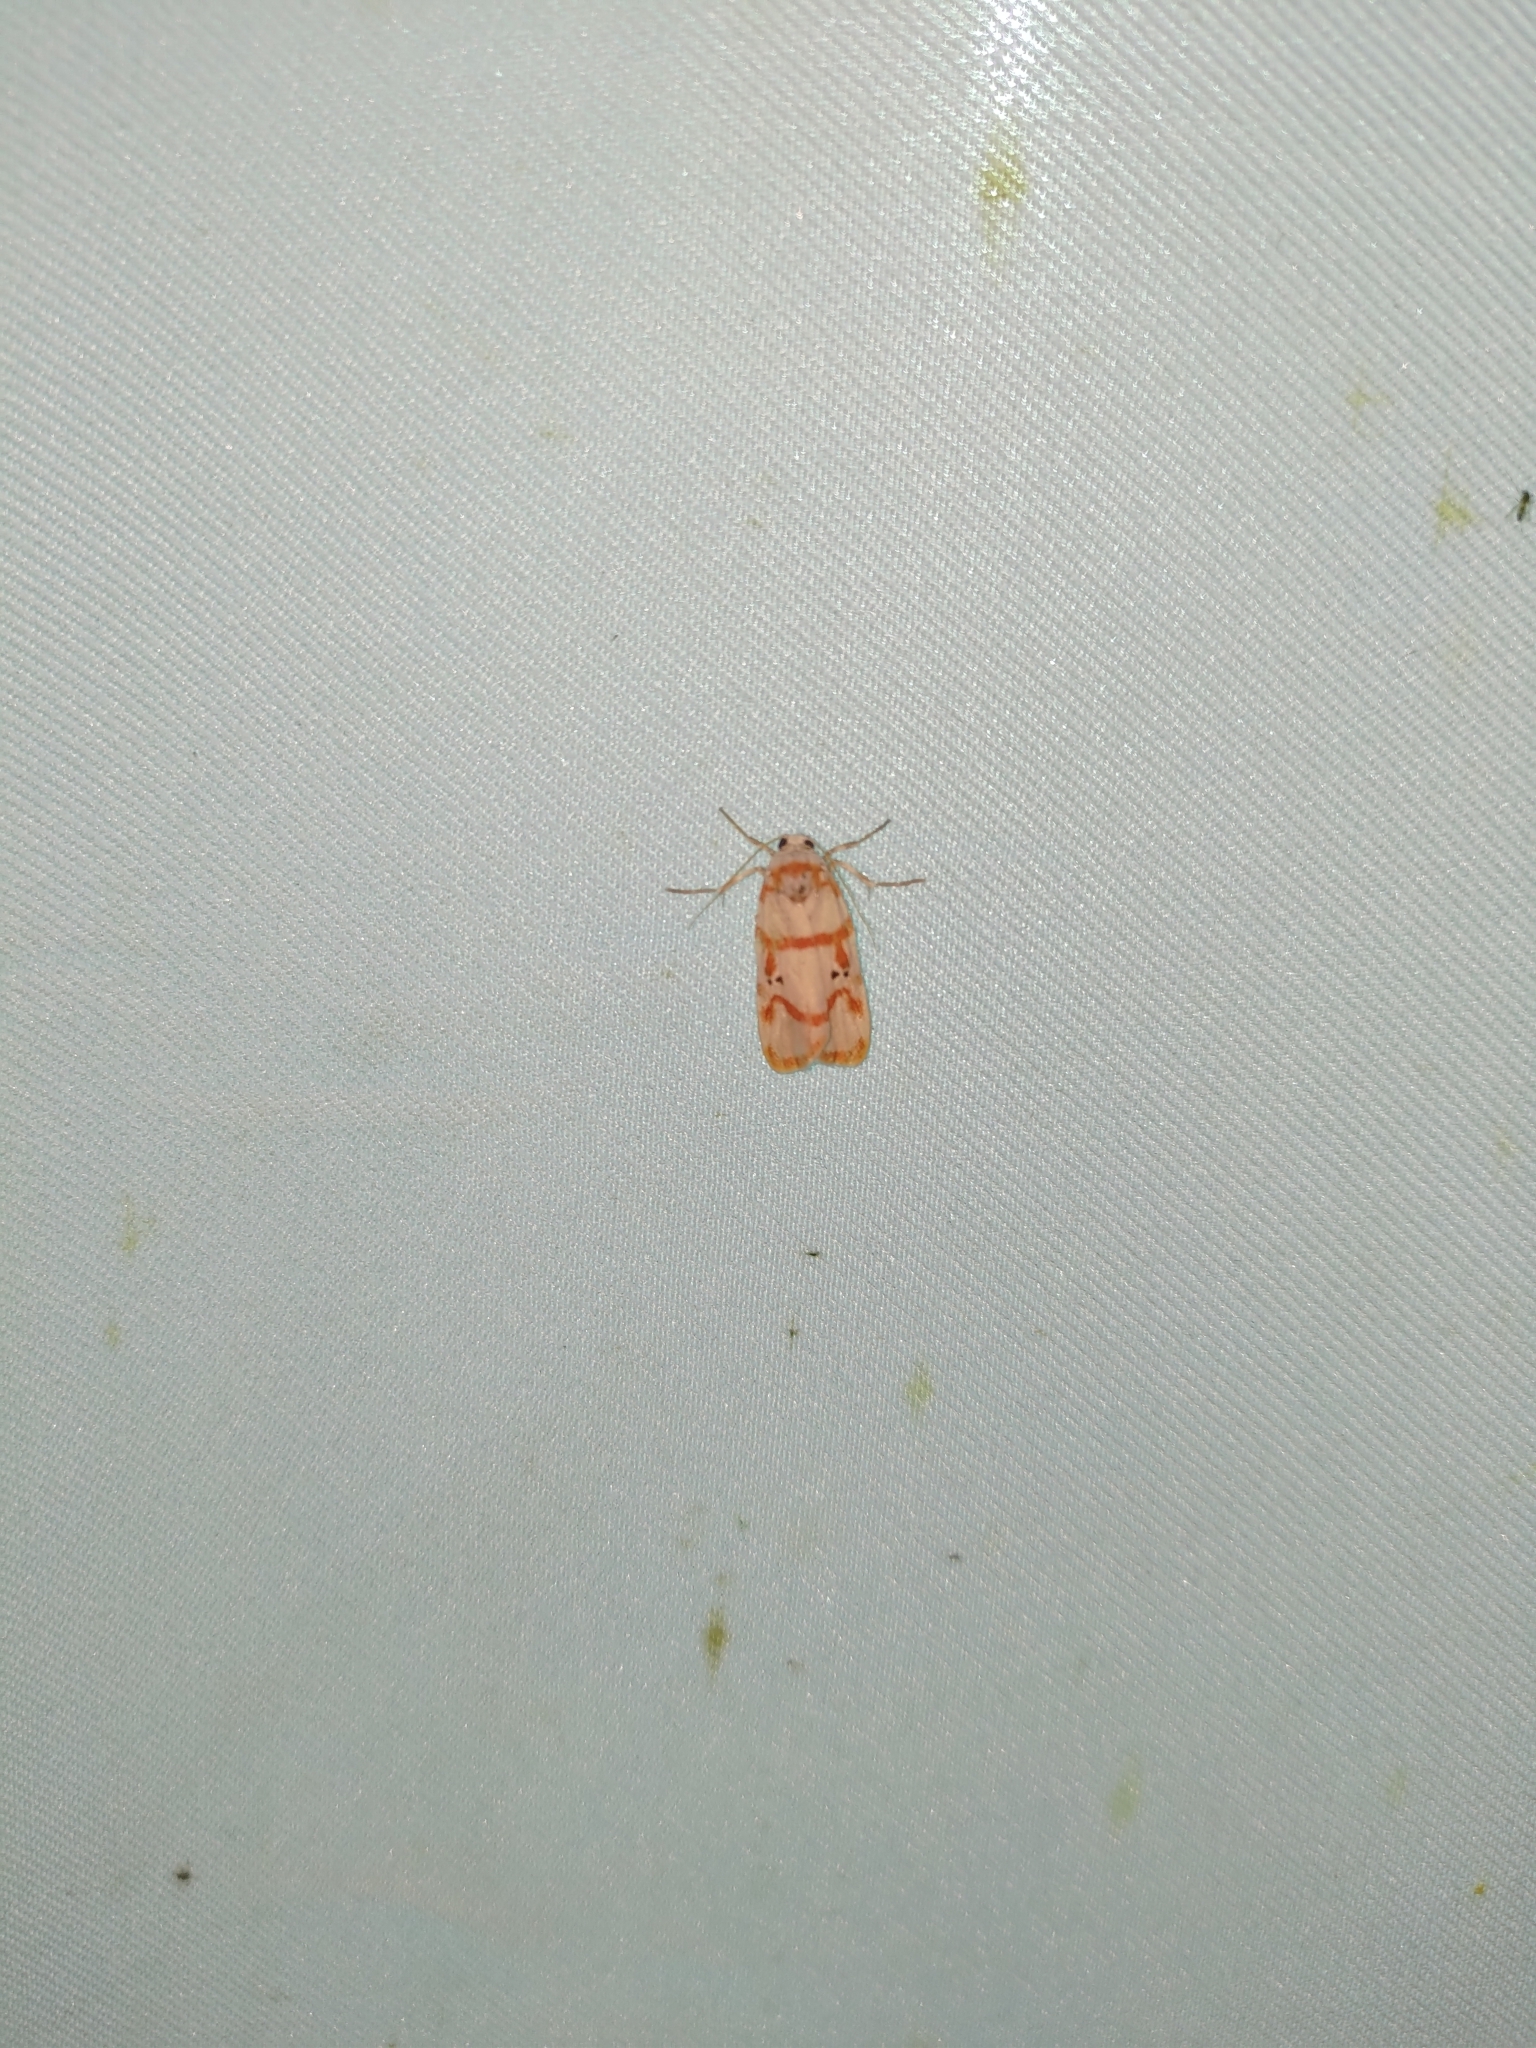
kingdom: Animalia
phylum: Arthropoda
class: Insecta
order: Lepidoptera
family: Erebidae
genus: Cyana
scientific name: Cyana hamata
